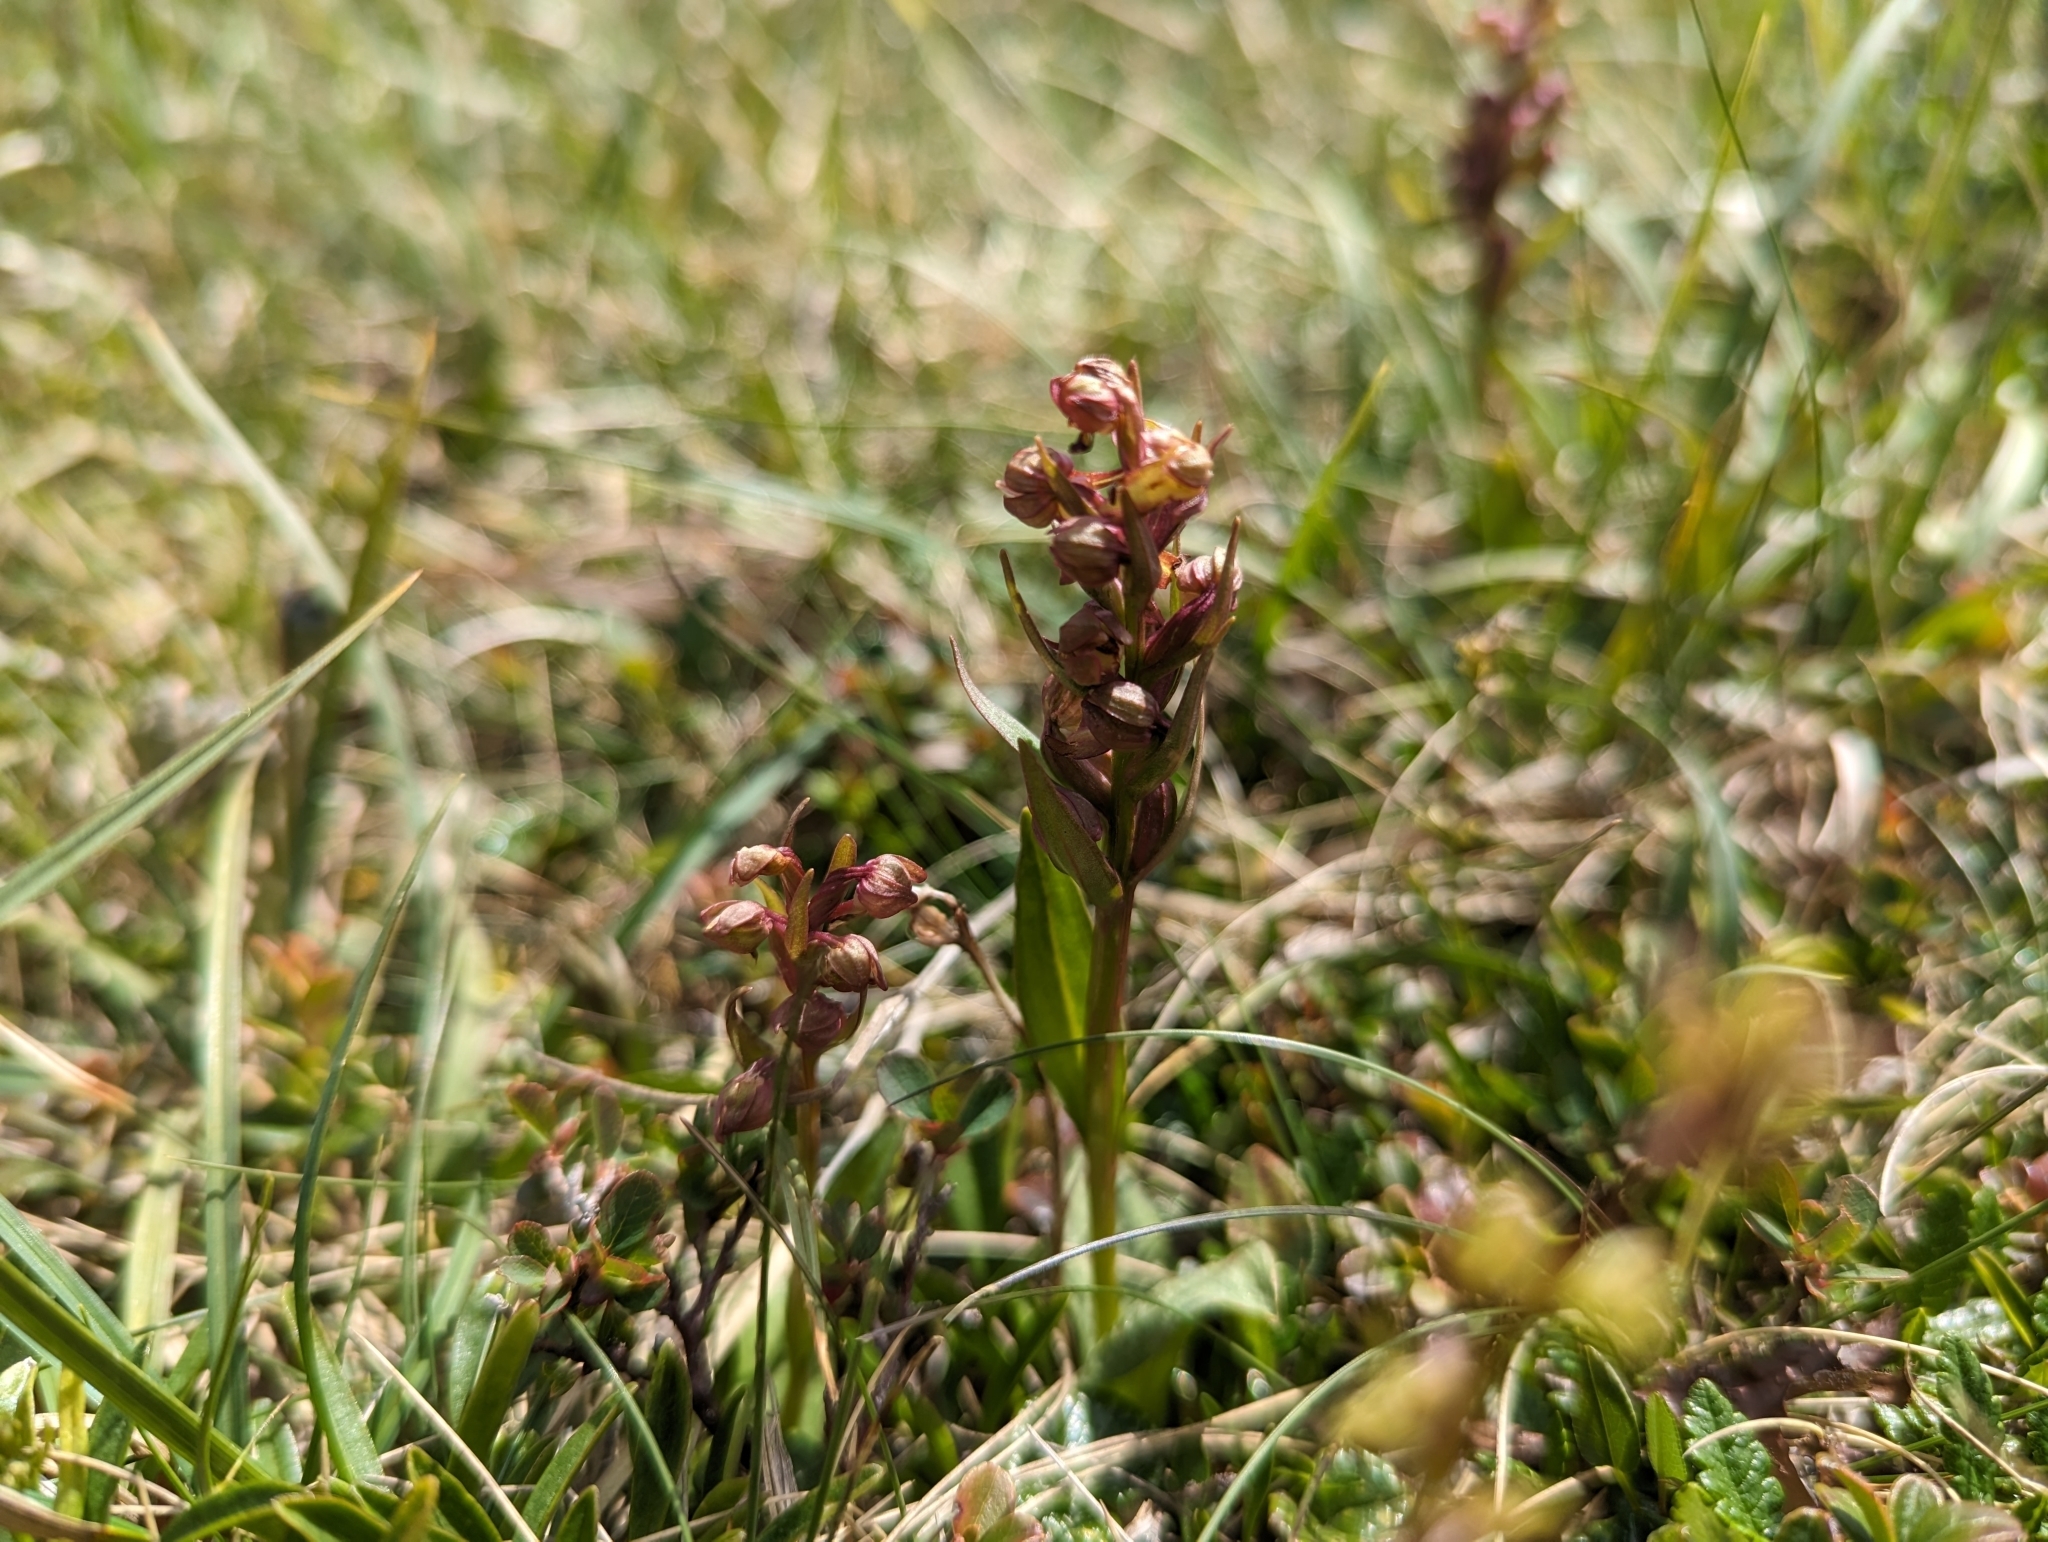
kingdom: Plantae
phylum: Tracheophyta
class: Liliopsida
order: Asparagales
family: Orchidaceae
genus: Dactylorhiza
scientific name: Dactylorhiza viridis
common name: Longbract frog orchid
